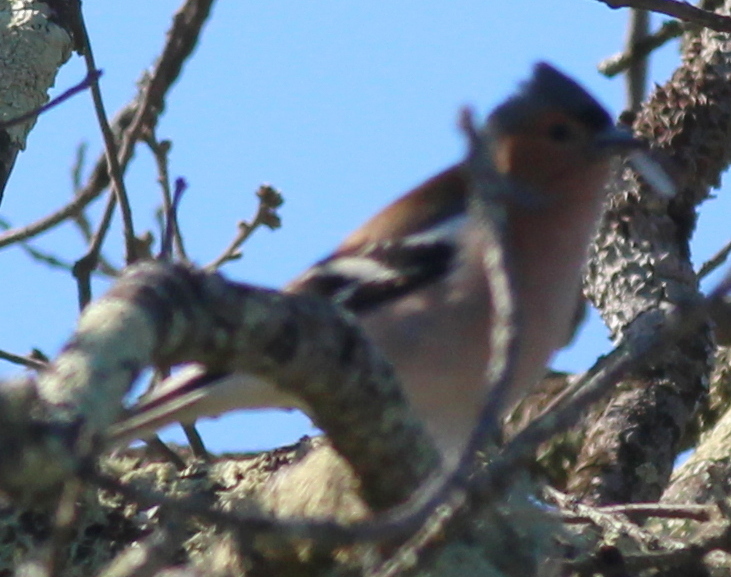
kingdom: Animalia
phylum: Chordata
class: Aves
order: Passeriformes
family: Fringillidae
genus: Fringilla
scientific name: Fringilla coelebs
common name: Common chaffinch
